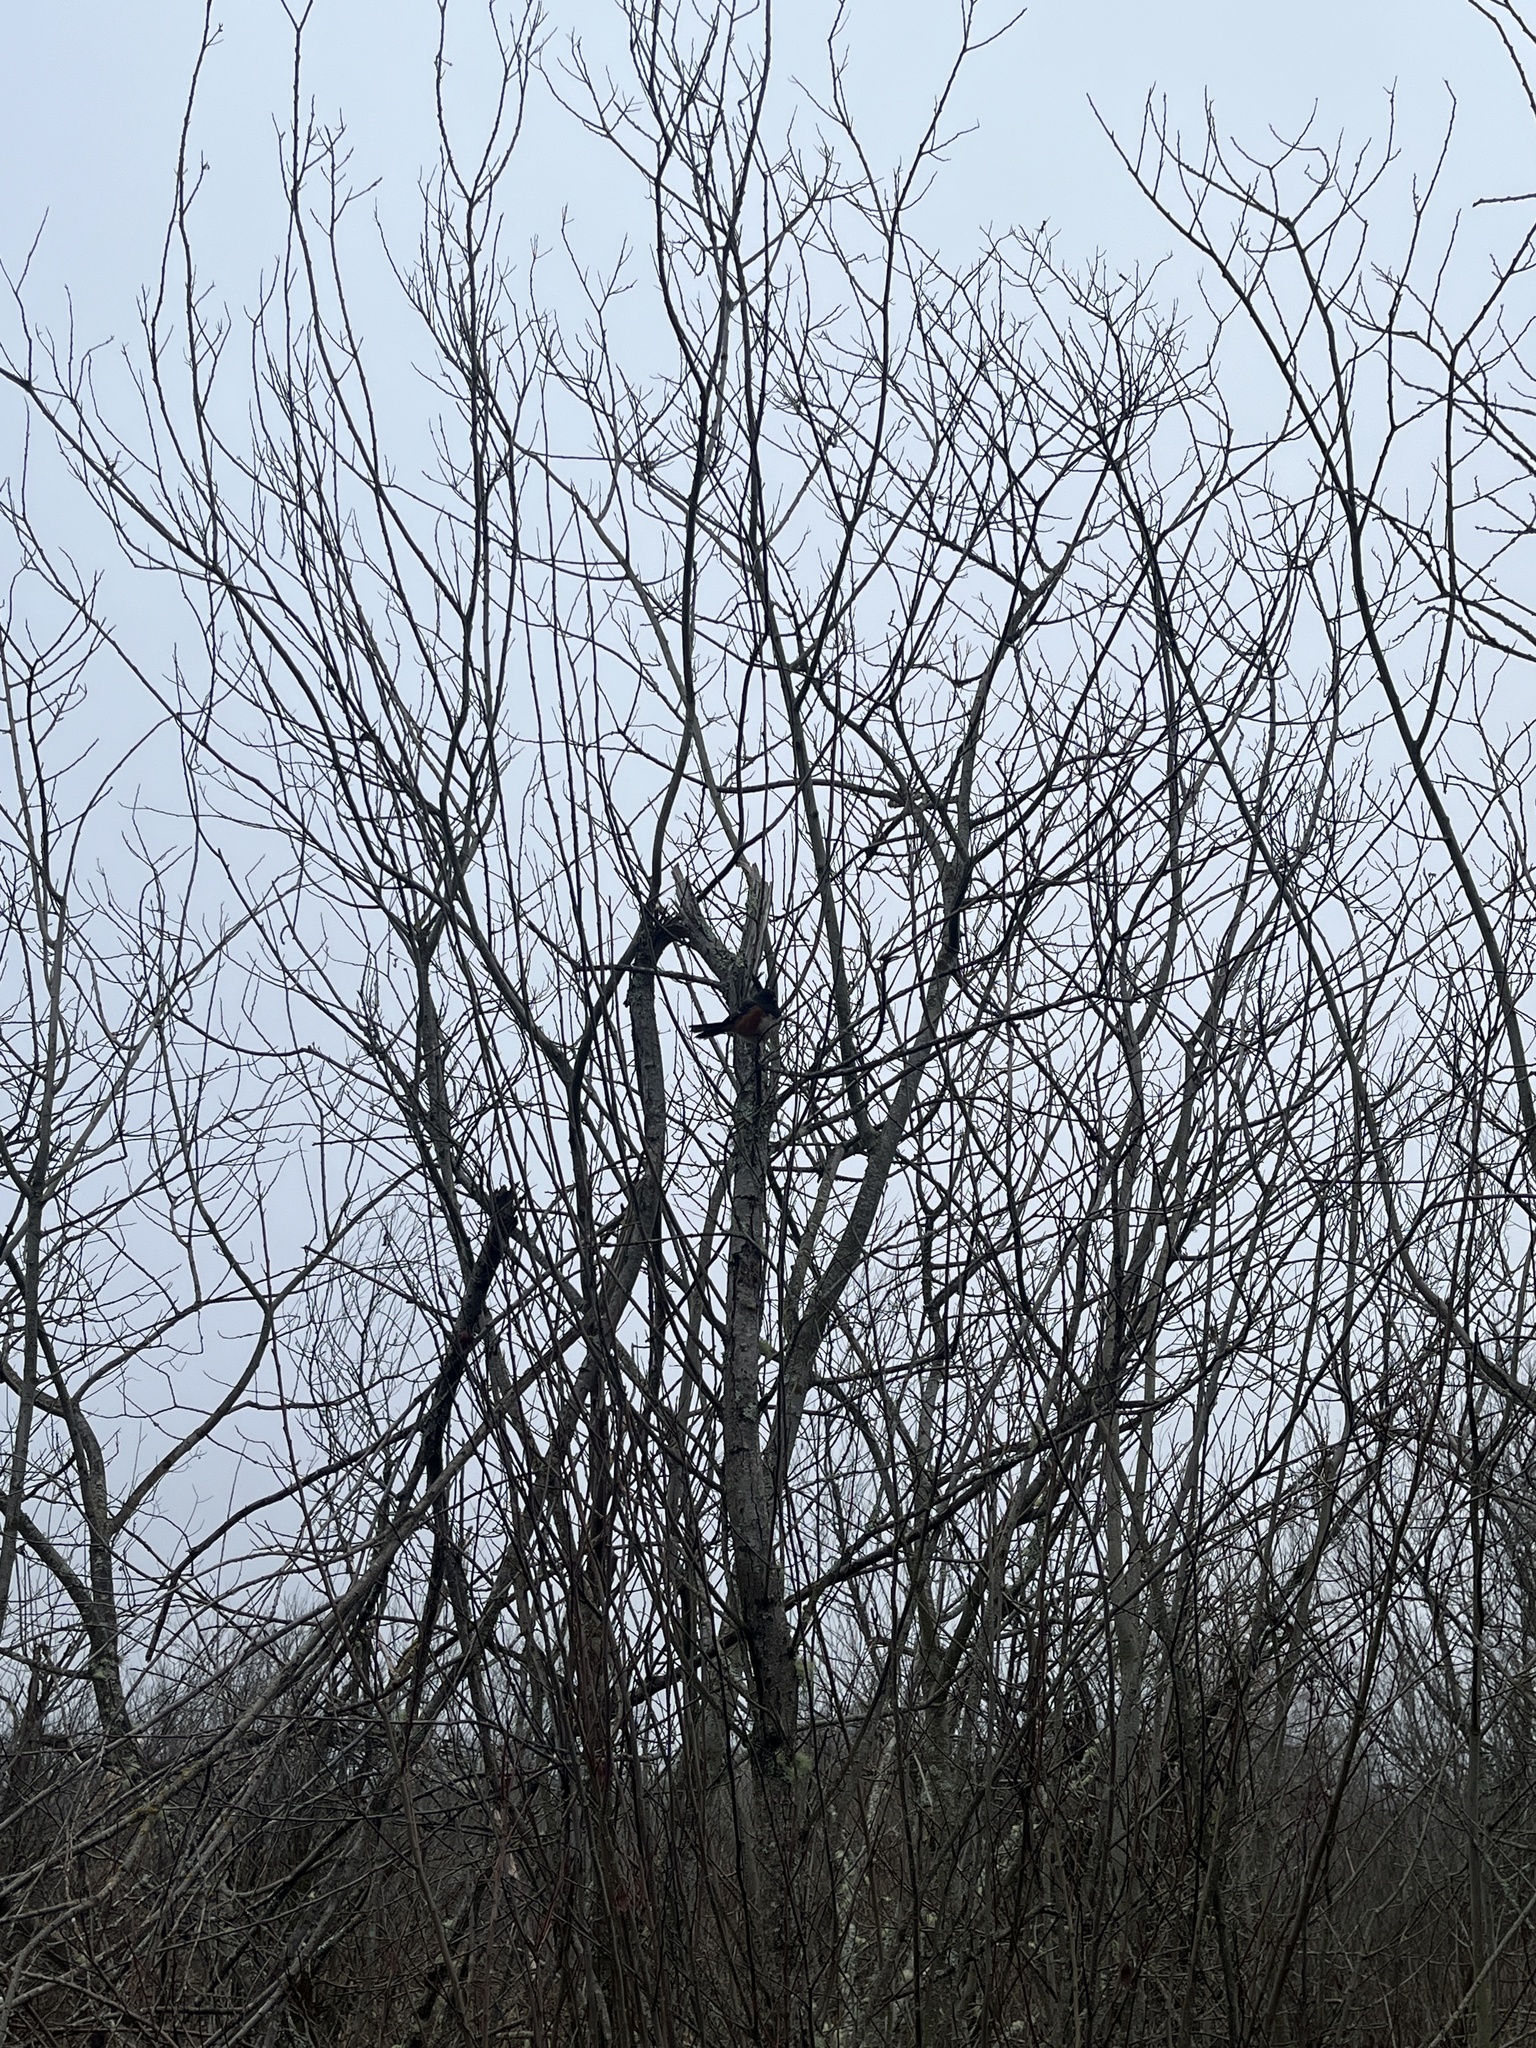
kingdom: Animalia
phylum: Chordata
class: Aves
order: Passeriformes
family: Passerellidae
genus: Pipilo
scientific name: Pipilo maculatus
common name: Spotted towhee
